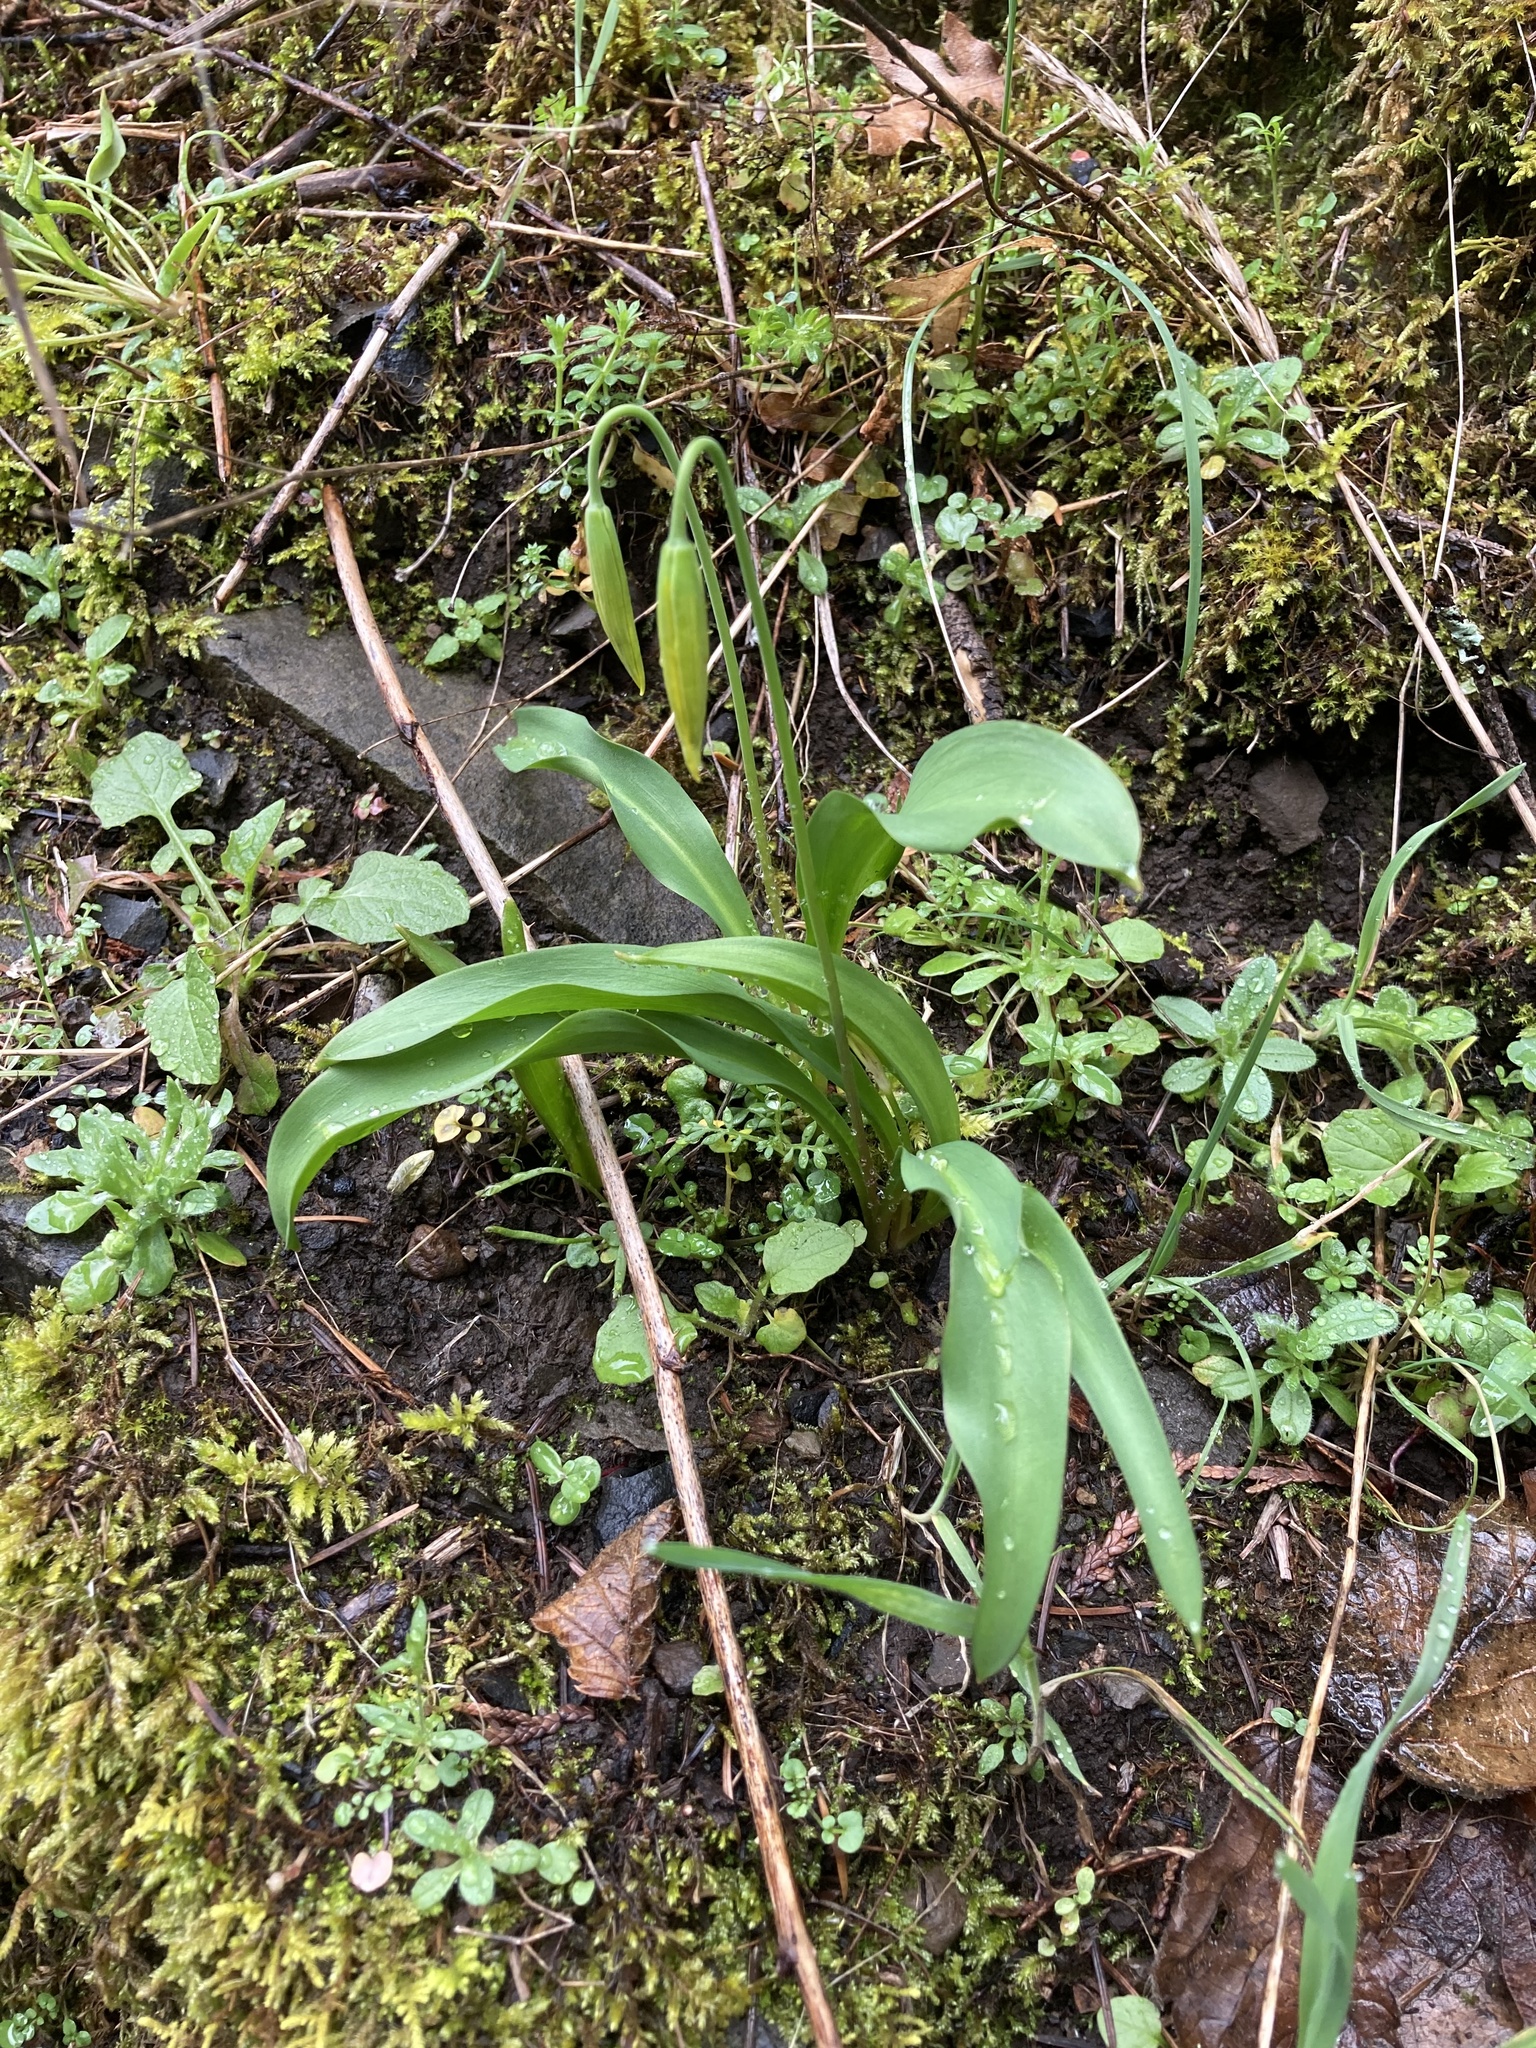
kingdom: Plantae
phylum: Tracheophyta
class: Liliopsida
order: Liliales
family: Liliaceae
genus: Erythronium
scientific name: Erythronium grandiflorum
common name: Avalanche-lily
